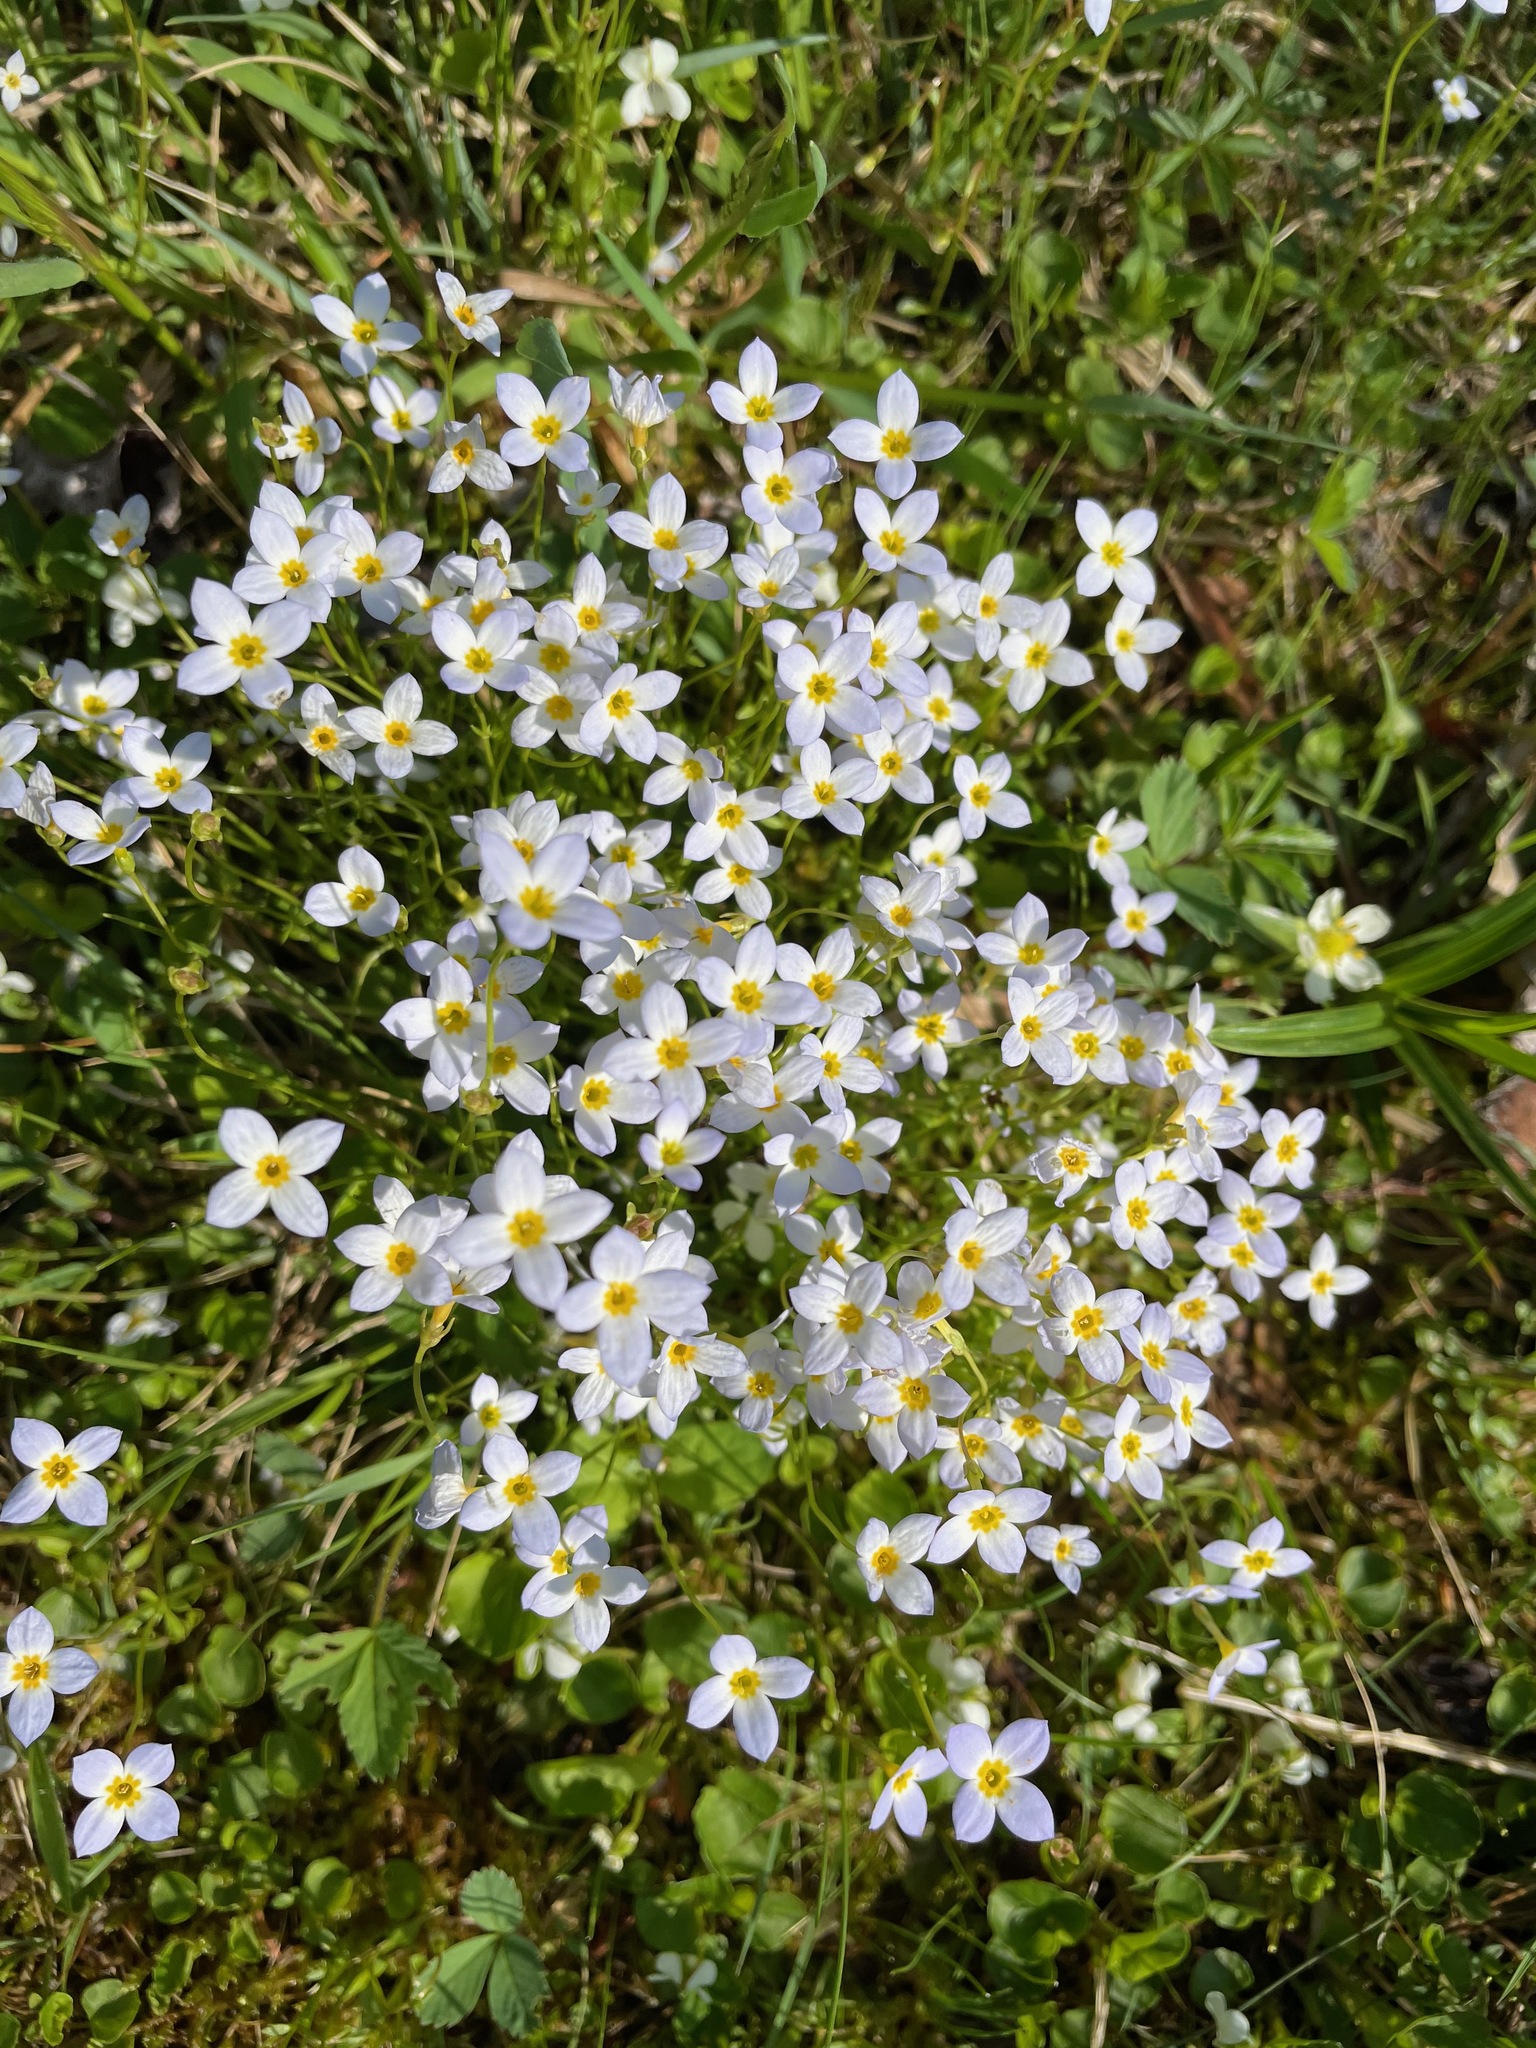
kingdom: Plantae
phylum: Tracheophyta
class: Magnoliopsida
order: Gentianales
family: Rubiaceae
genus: Houstonia
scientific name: Houstonia caerulea
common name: Bluets
